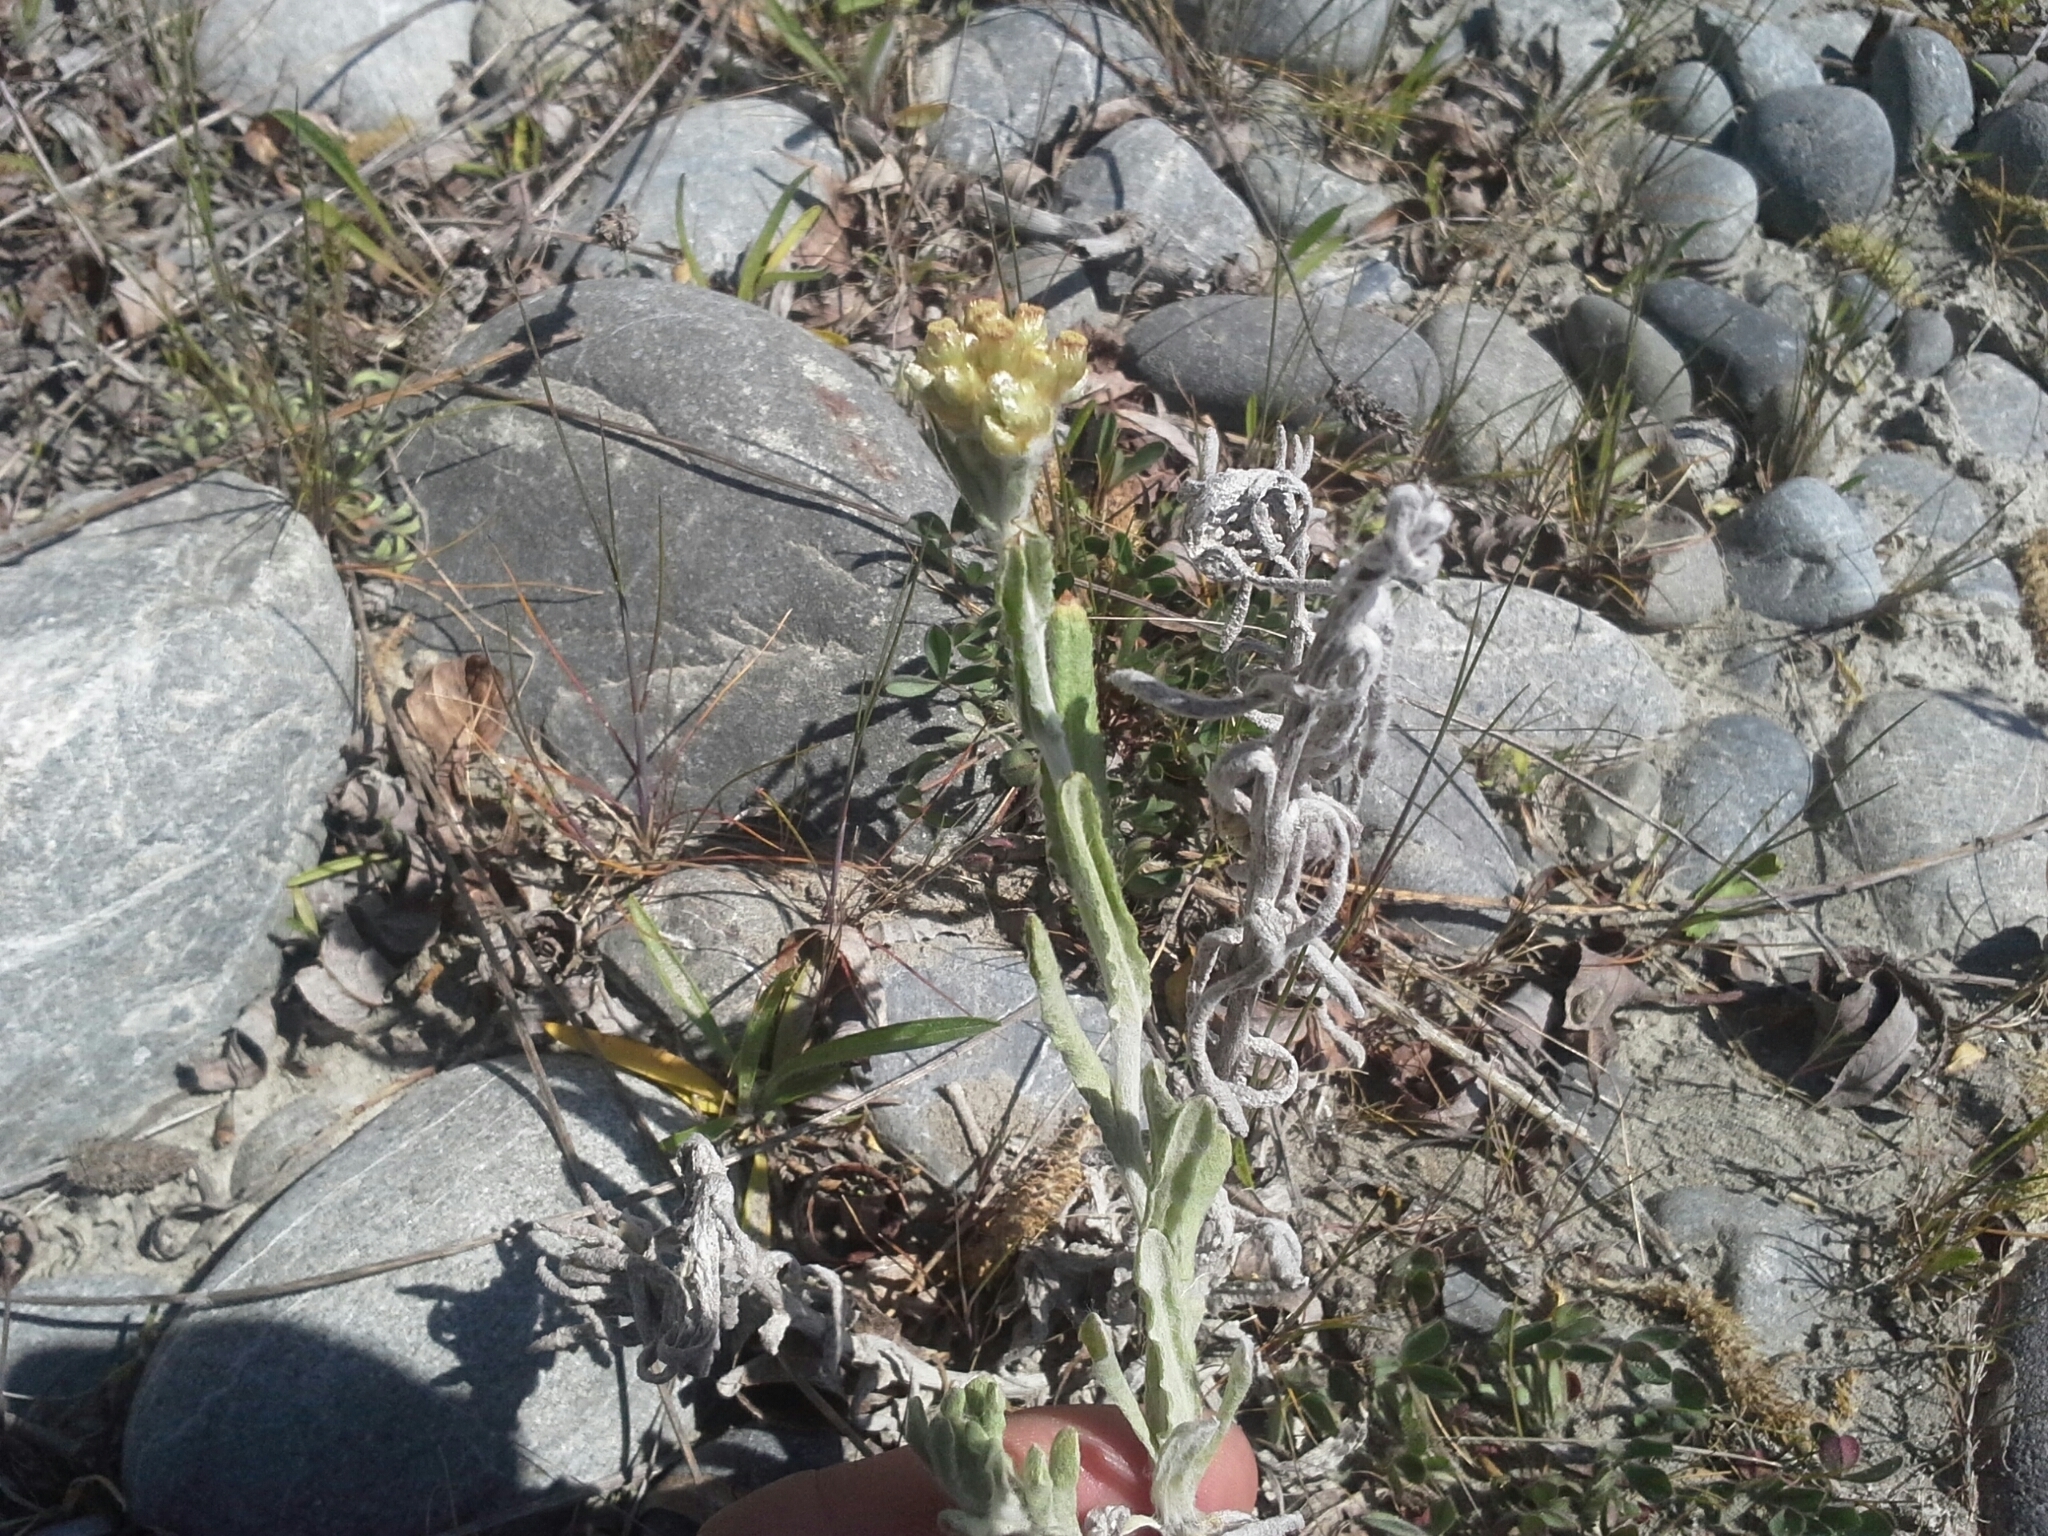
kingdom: Plantae
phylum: Tracheophyta
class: Magnoliopsida
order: Asterales
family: Asteraceae
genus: Helichrysum
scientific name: Helichrysum luteoalbum
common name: Daisy
